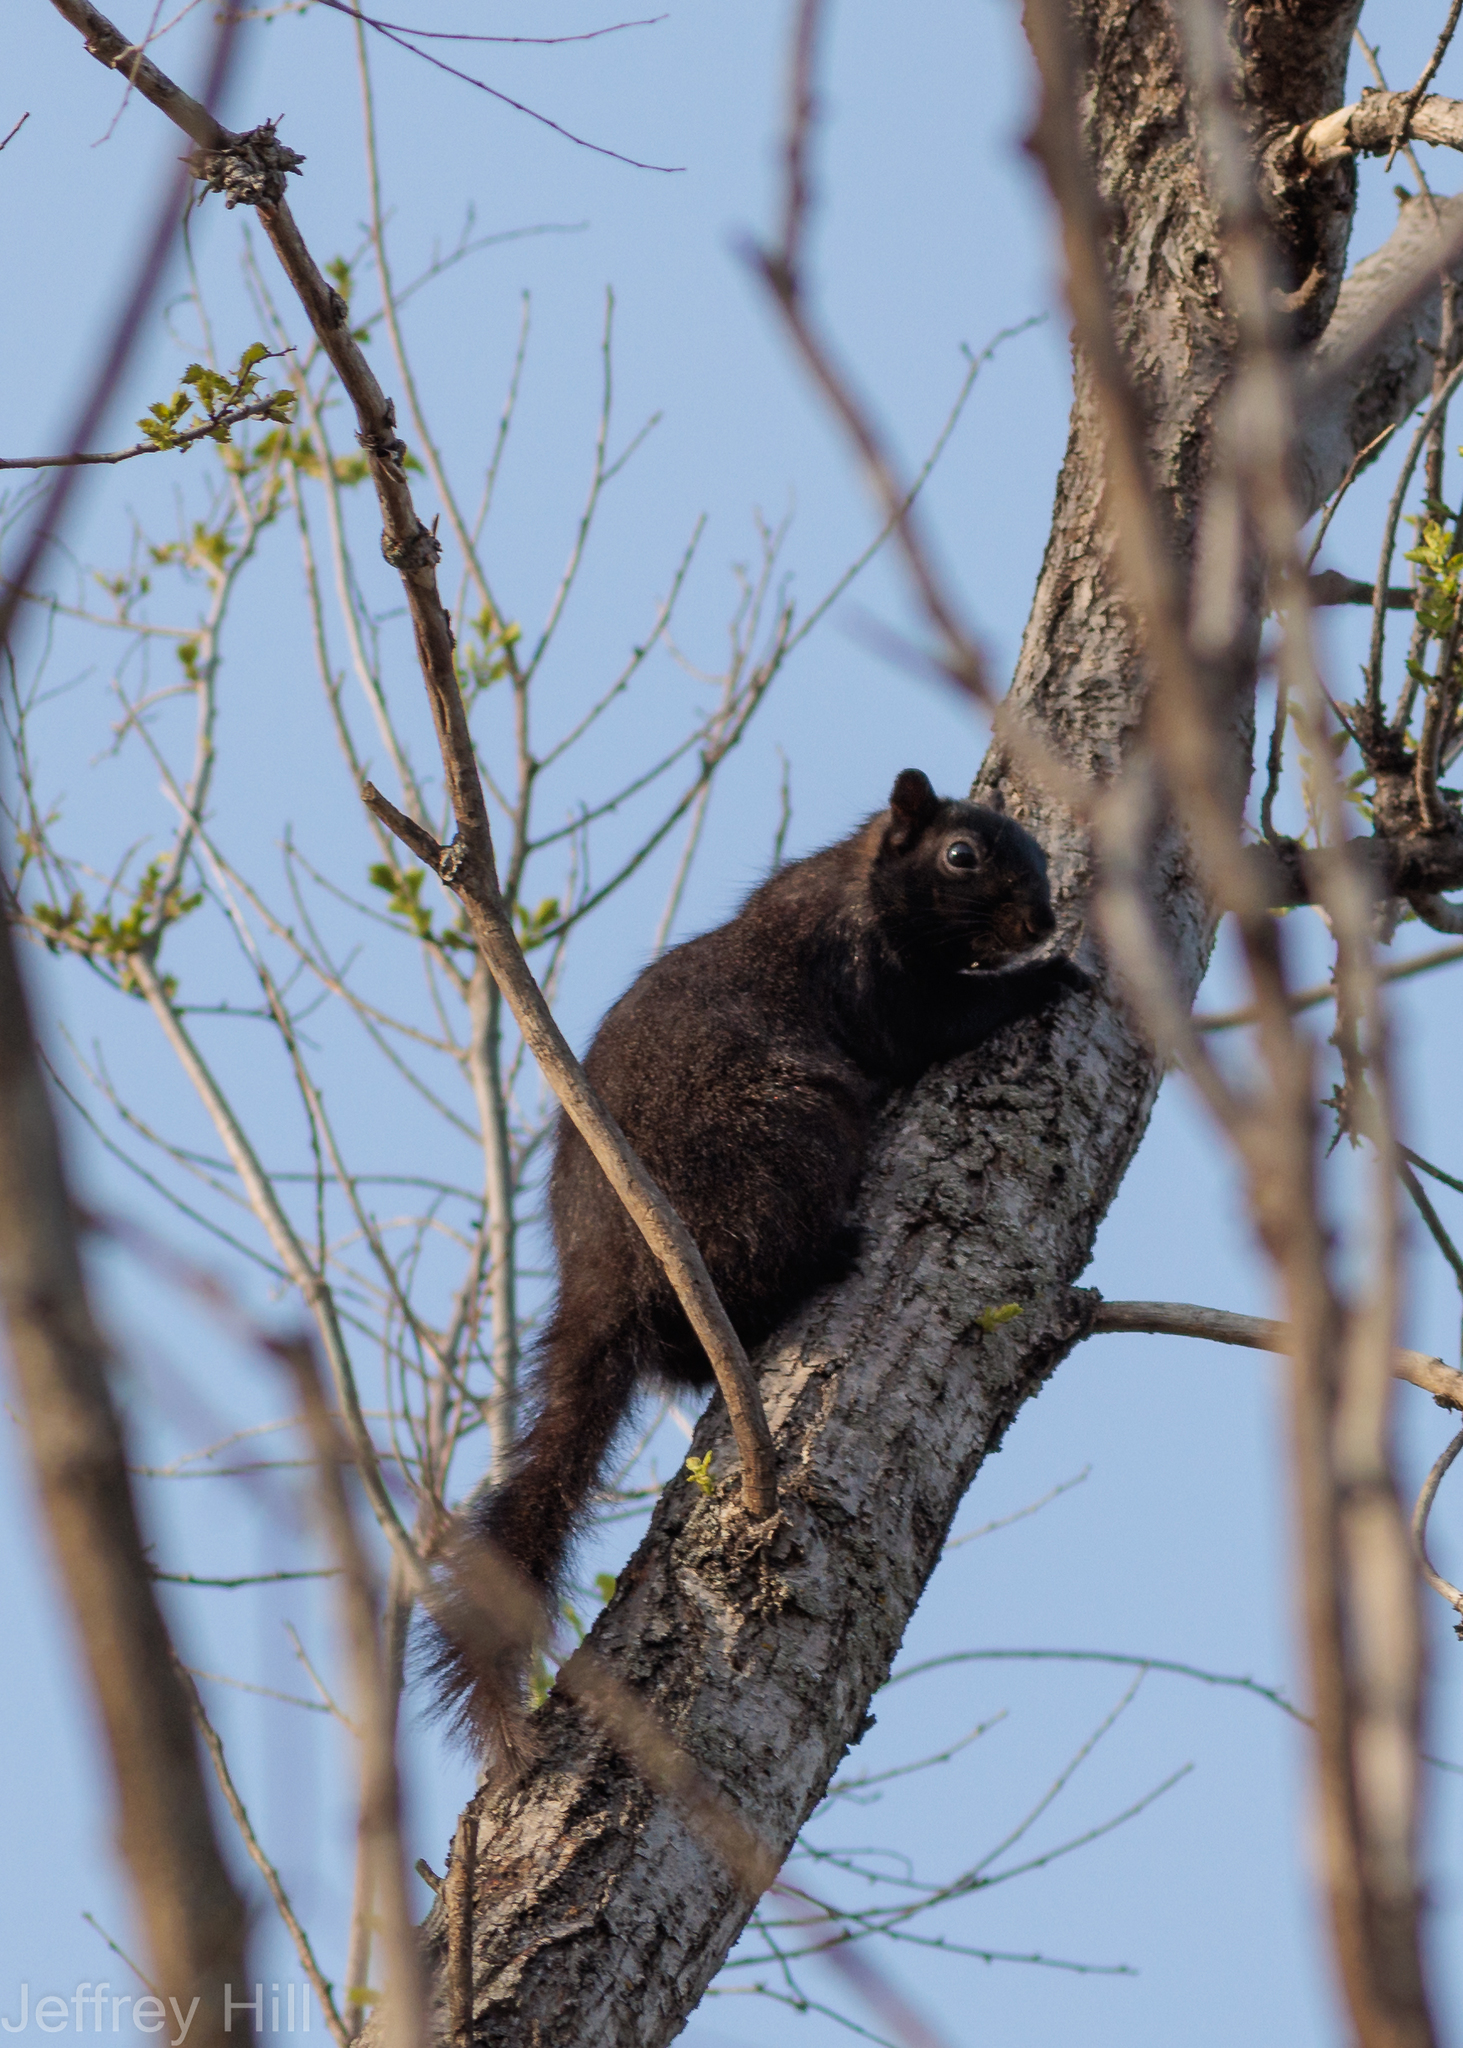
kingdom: Animalia
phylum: Chordata
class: Mammalia
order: Rodentia
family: Sciuridae
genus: Sciurus
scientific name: Sciurus niger
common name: Fox squirrel
